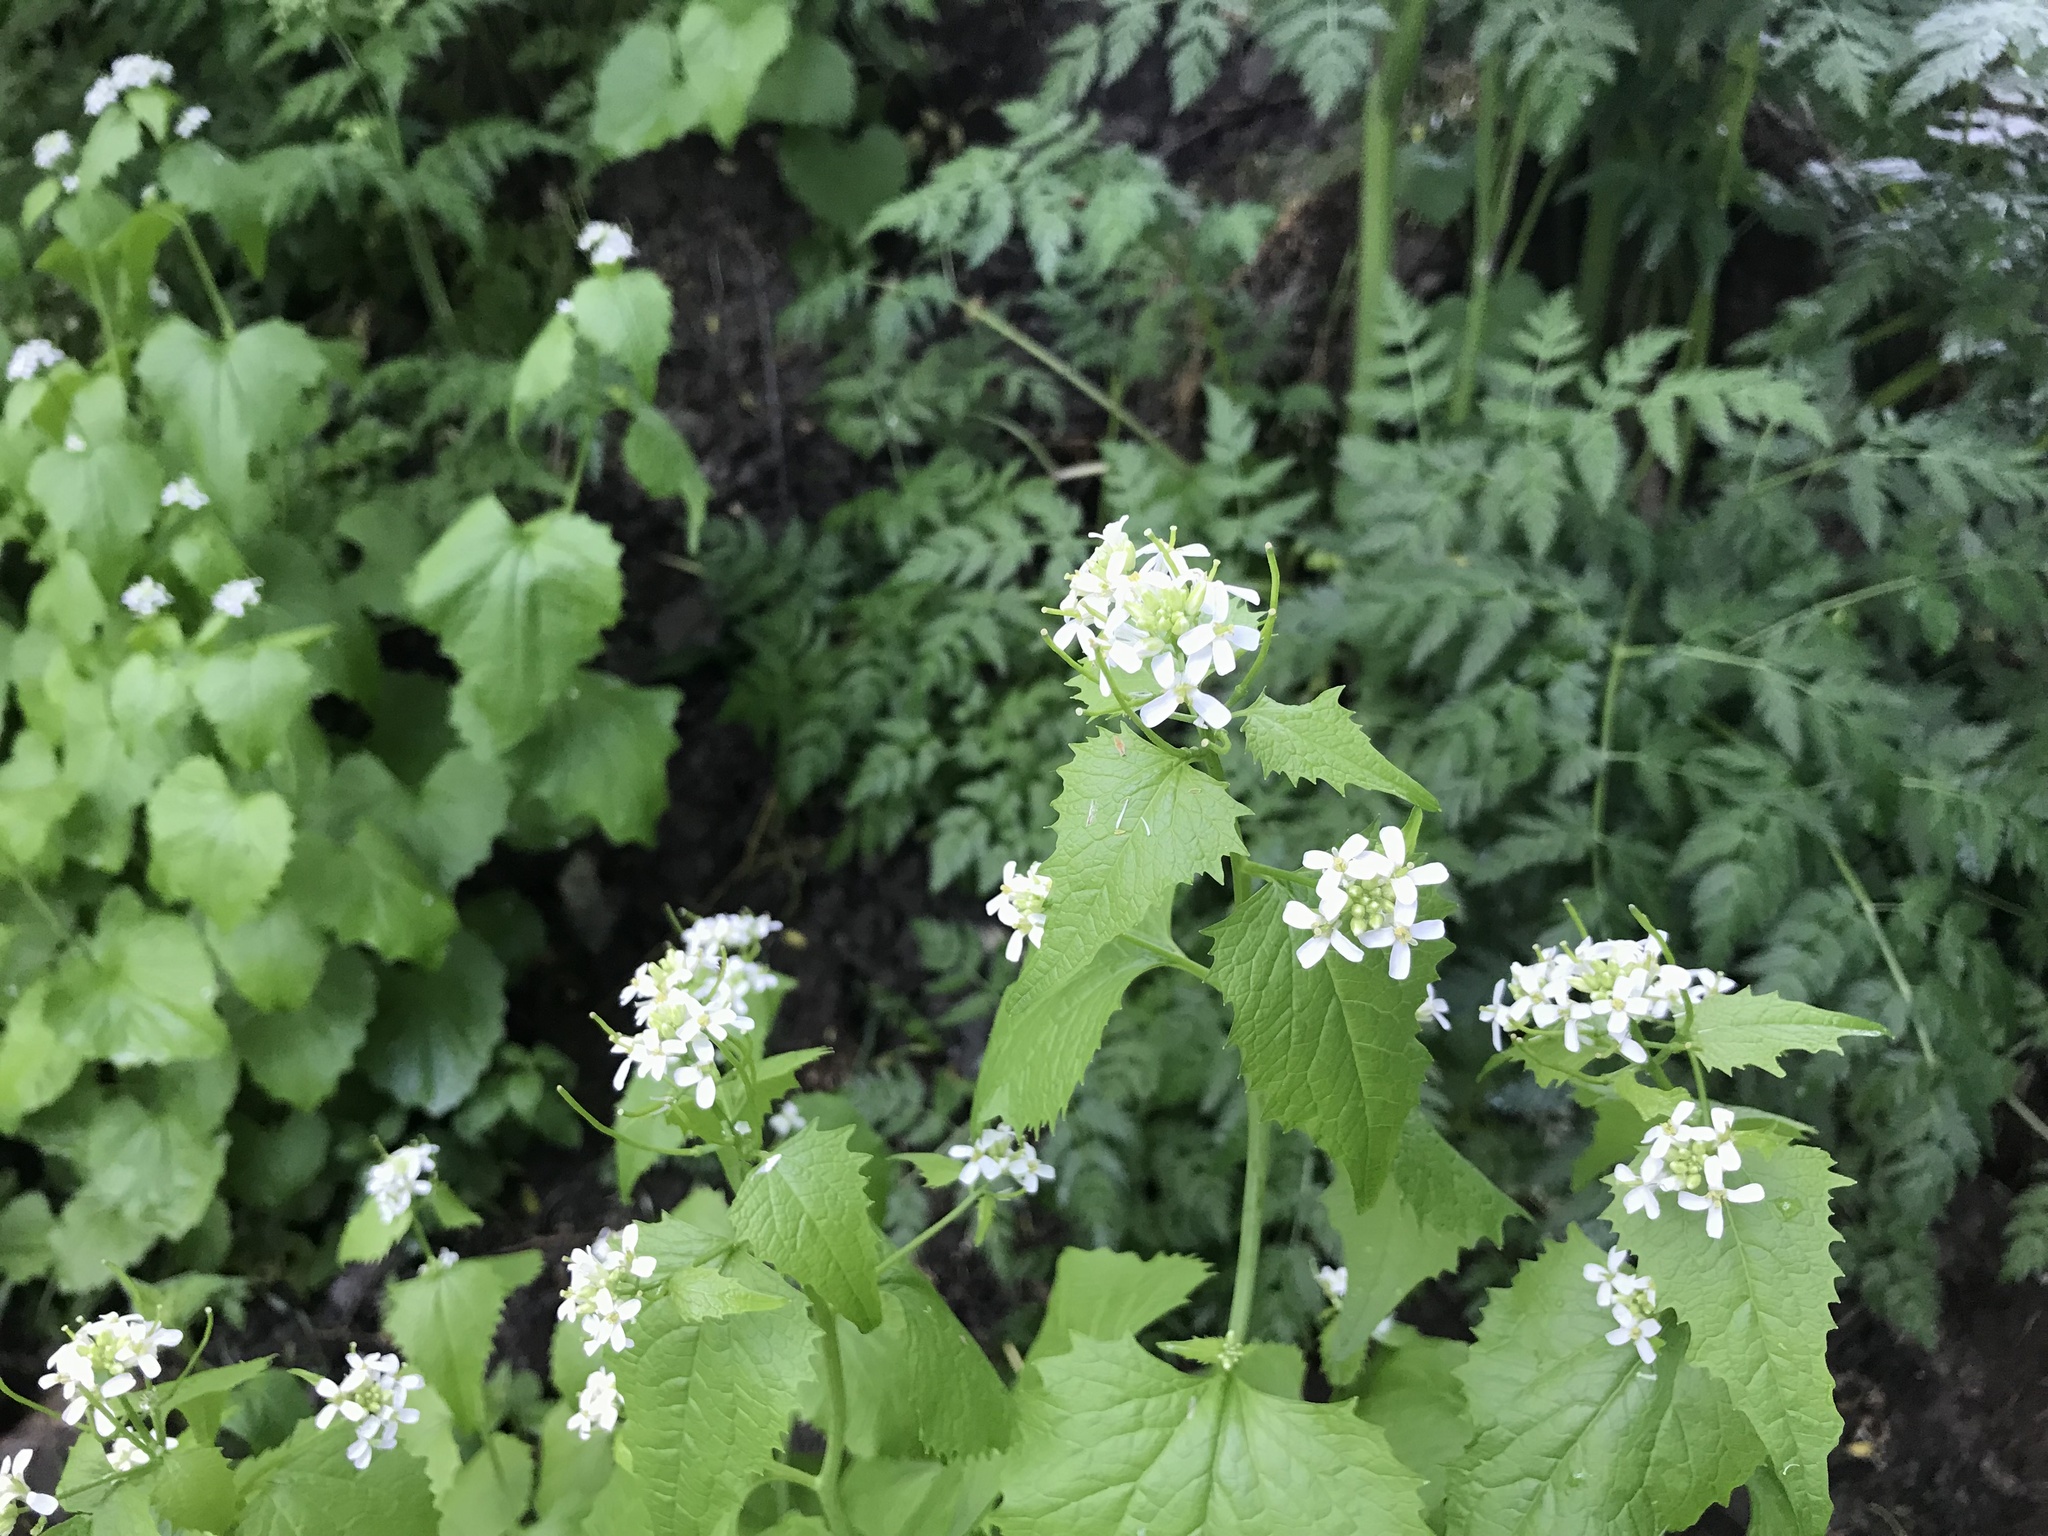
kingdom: Plantae
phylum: Tracheophyta
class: Magnoliopsida
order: Brassicales
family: Brassicaceae
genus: Alliaria
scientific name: Alliaria petiolata
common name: Garlic mustard
